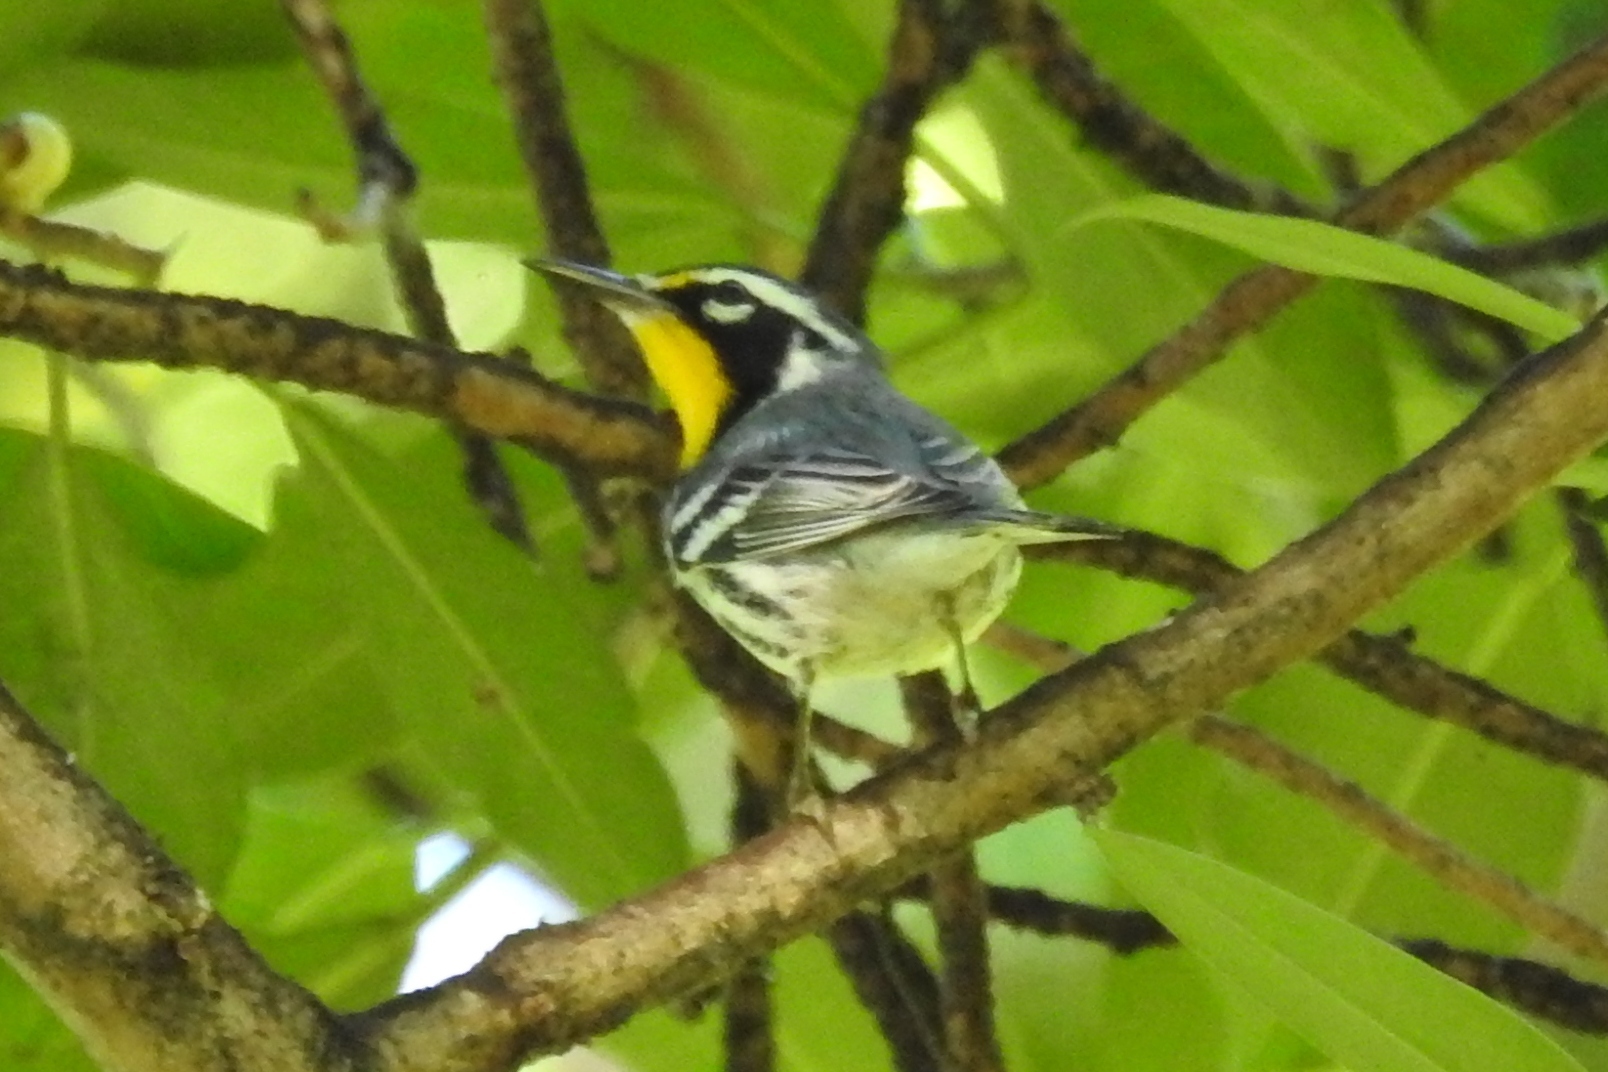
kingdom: Animalia
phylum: Chordata
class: Aves
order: Passeriformes
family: Parulidae
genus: Setophaga
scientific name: Setophaga dominica
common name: Yellow-throated warbler
